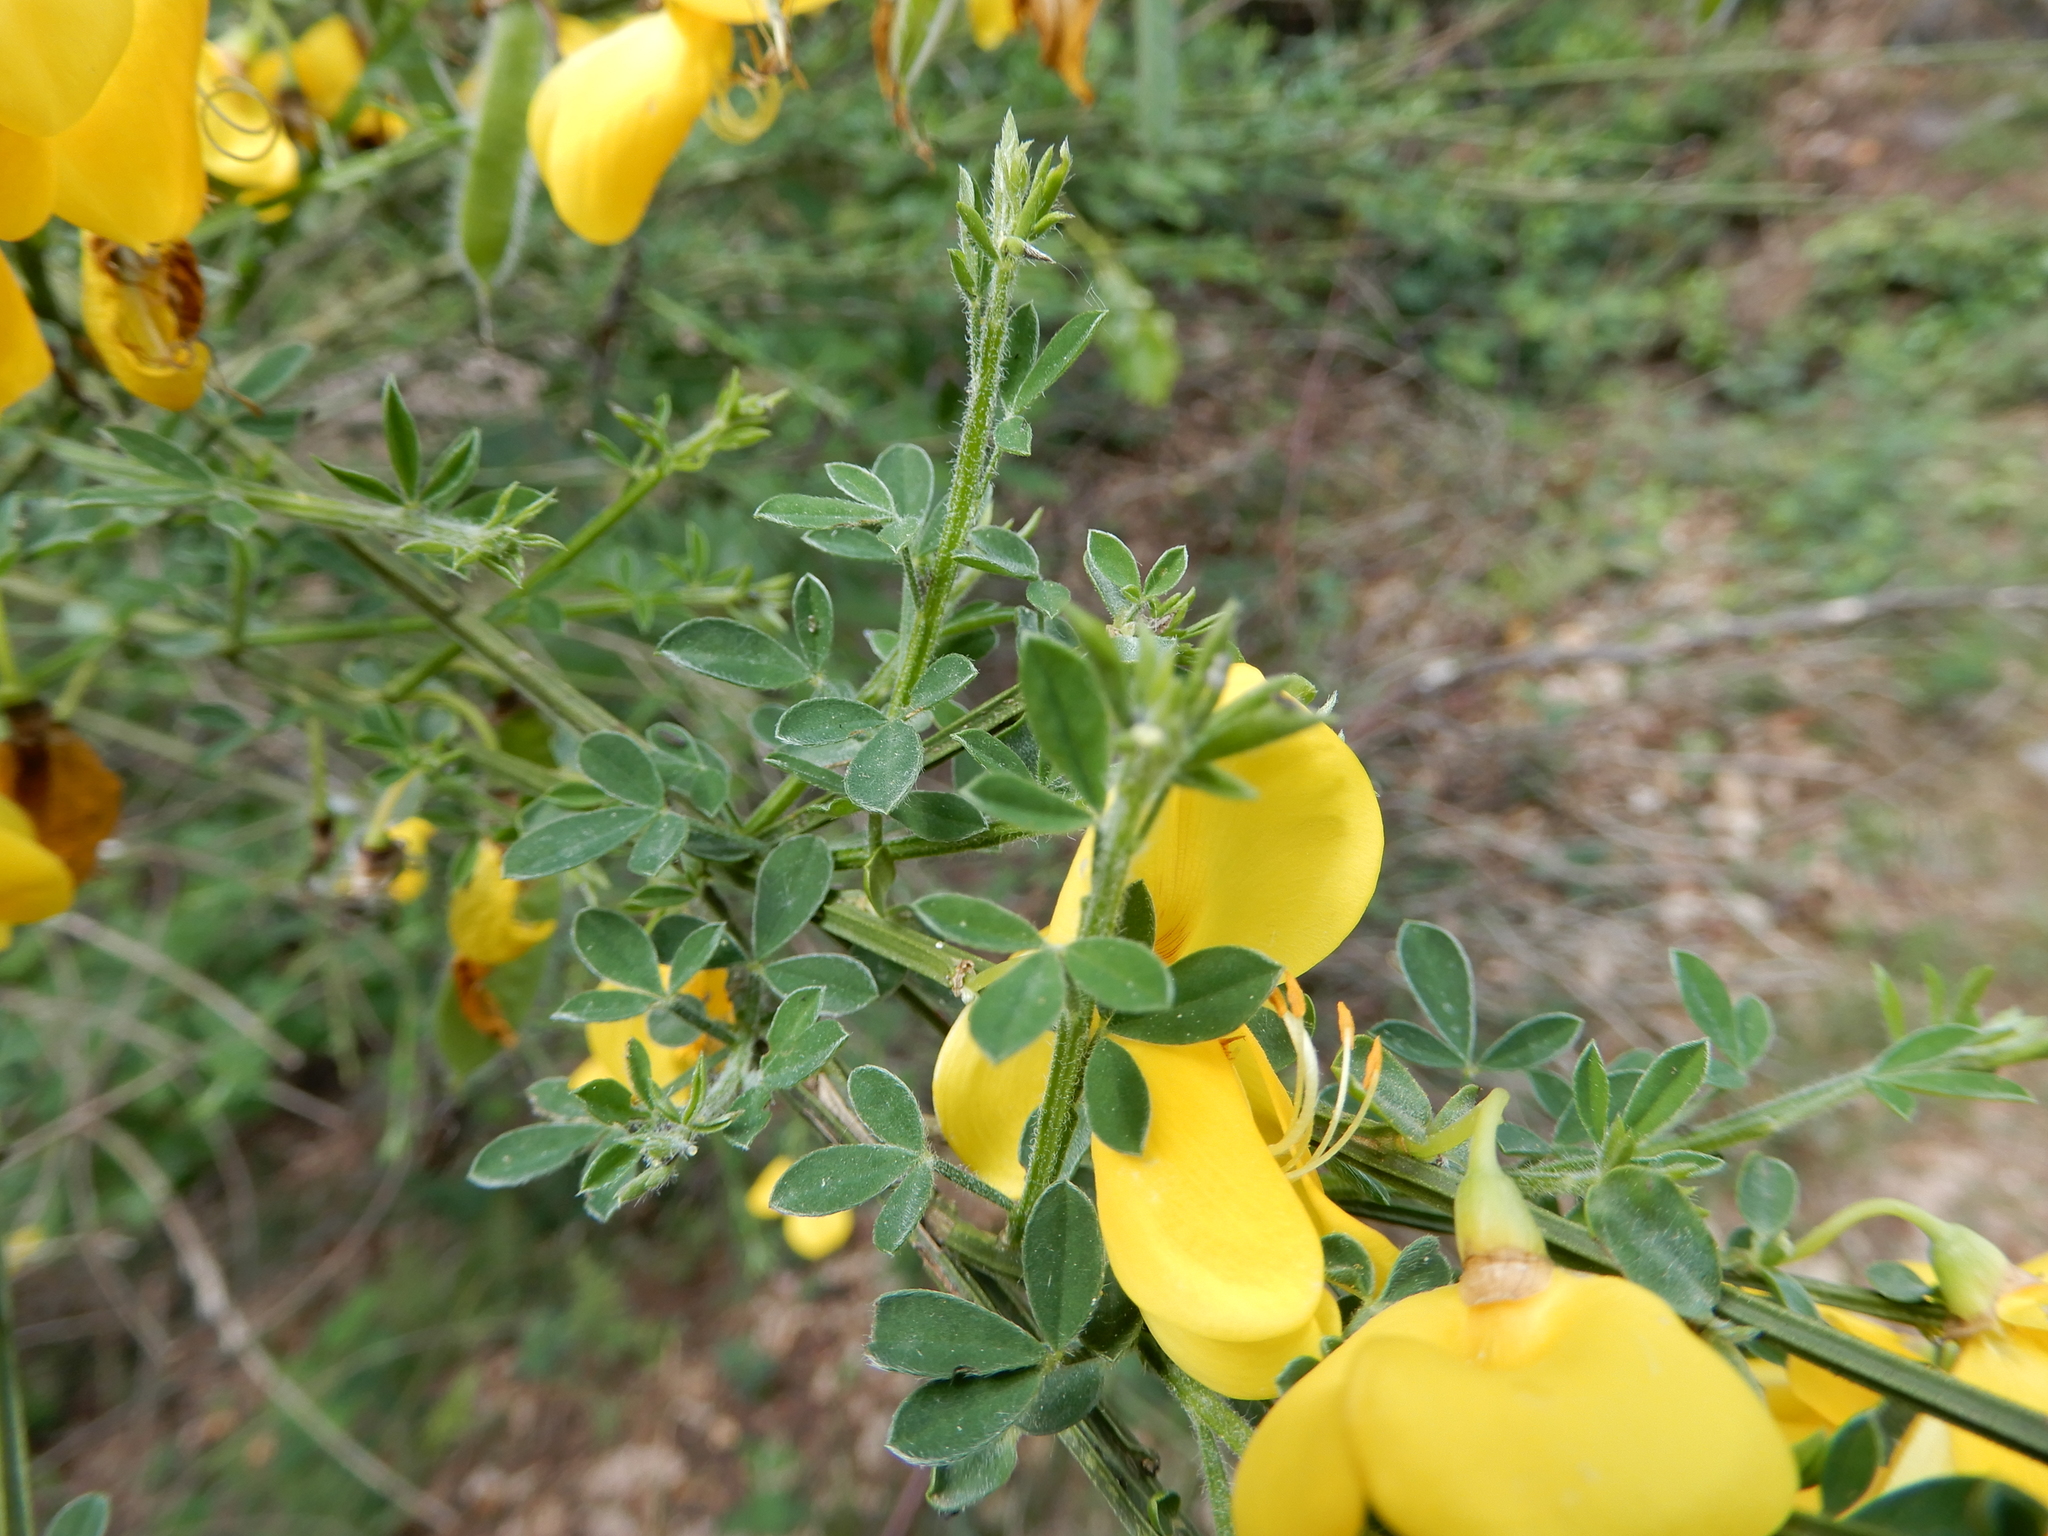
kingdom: Plantae
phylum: Tracheophyta
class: Magnoliopsida
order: Fabales
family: Fabaceae
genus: Cytisus
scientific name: Cytisus scoparius
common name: Scotch broom
